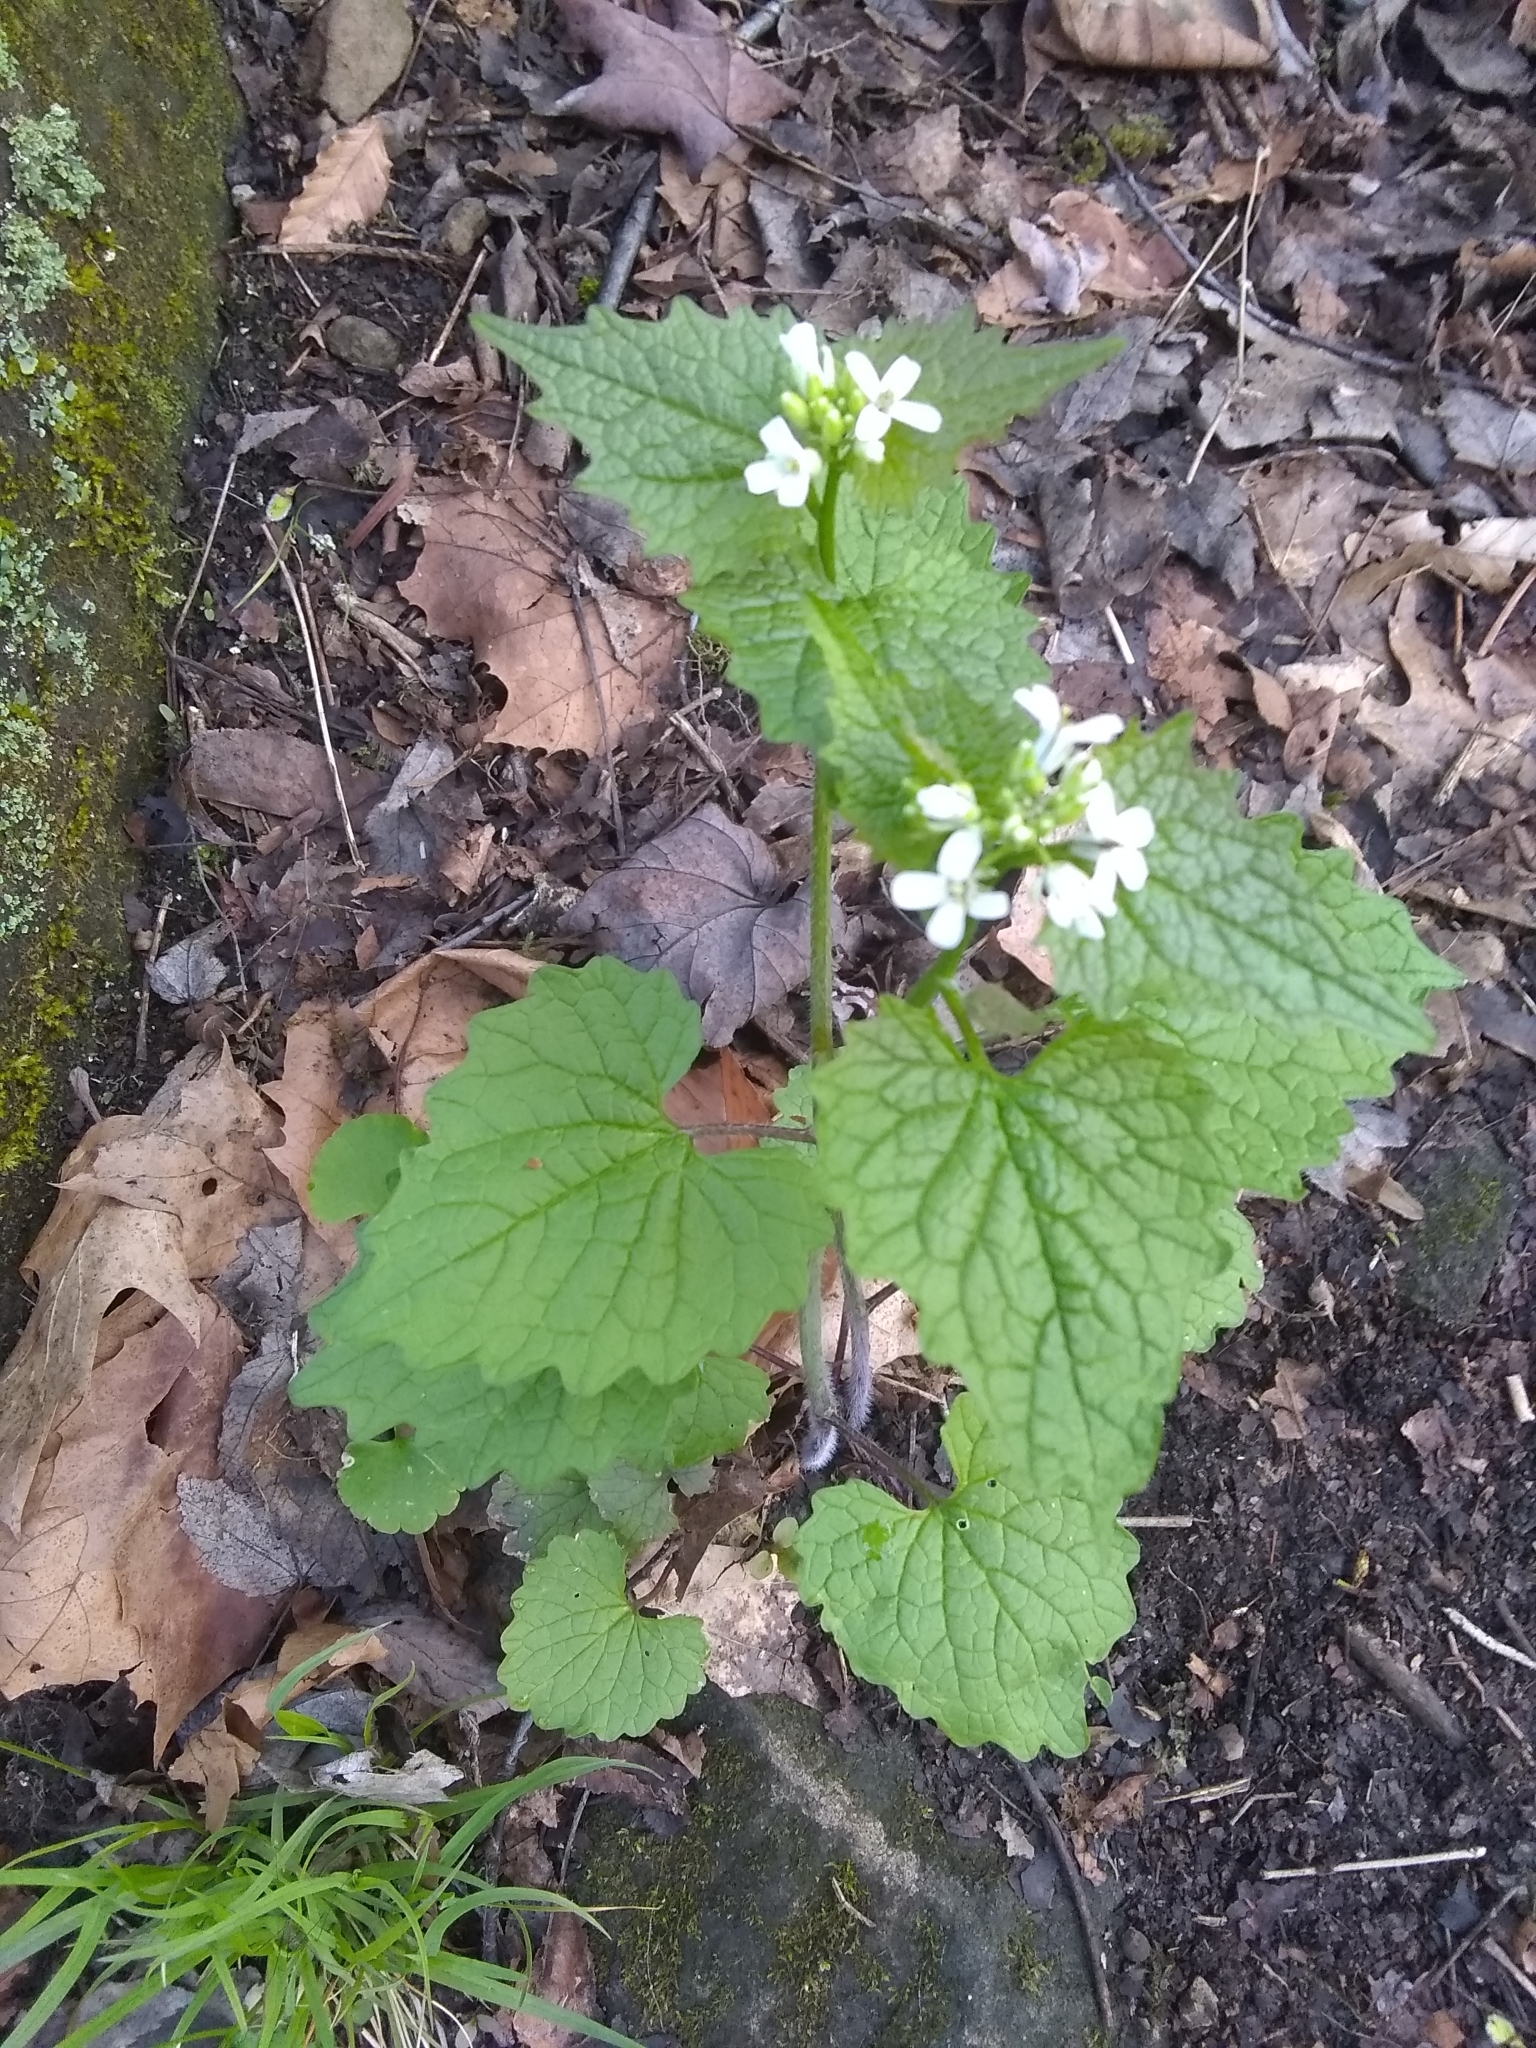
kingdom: Plantae
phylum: Tracheophyta
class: Magnoliopsida
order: Brassicales
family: Brassicaceae
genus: Alliaria
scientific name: Alliaria petiolata
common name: Garlic mustard
